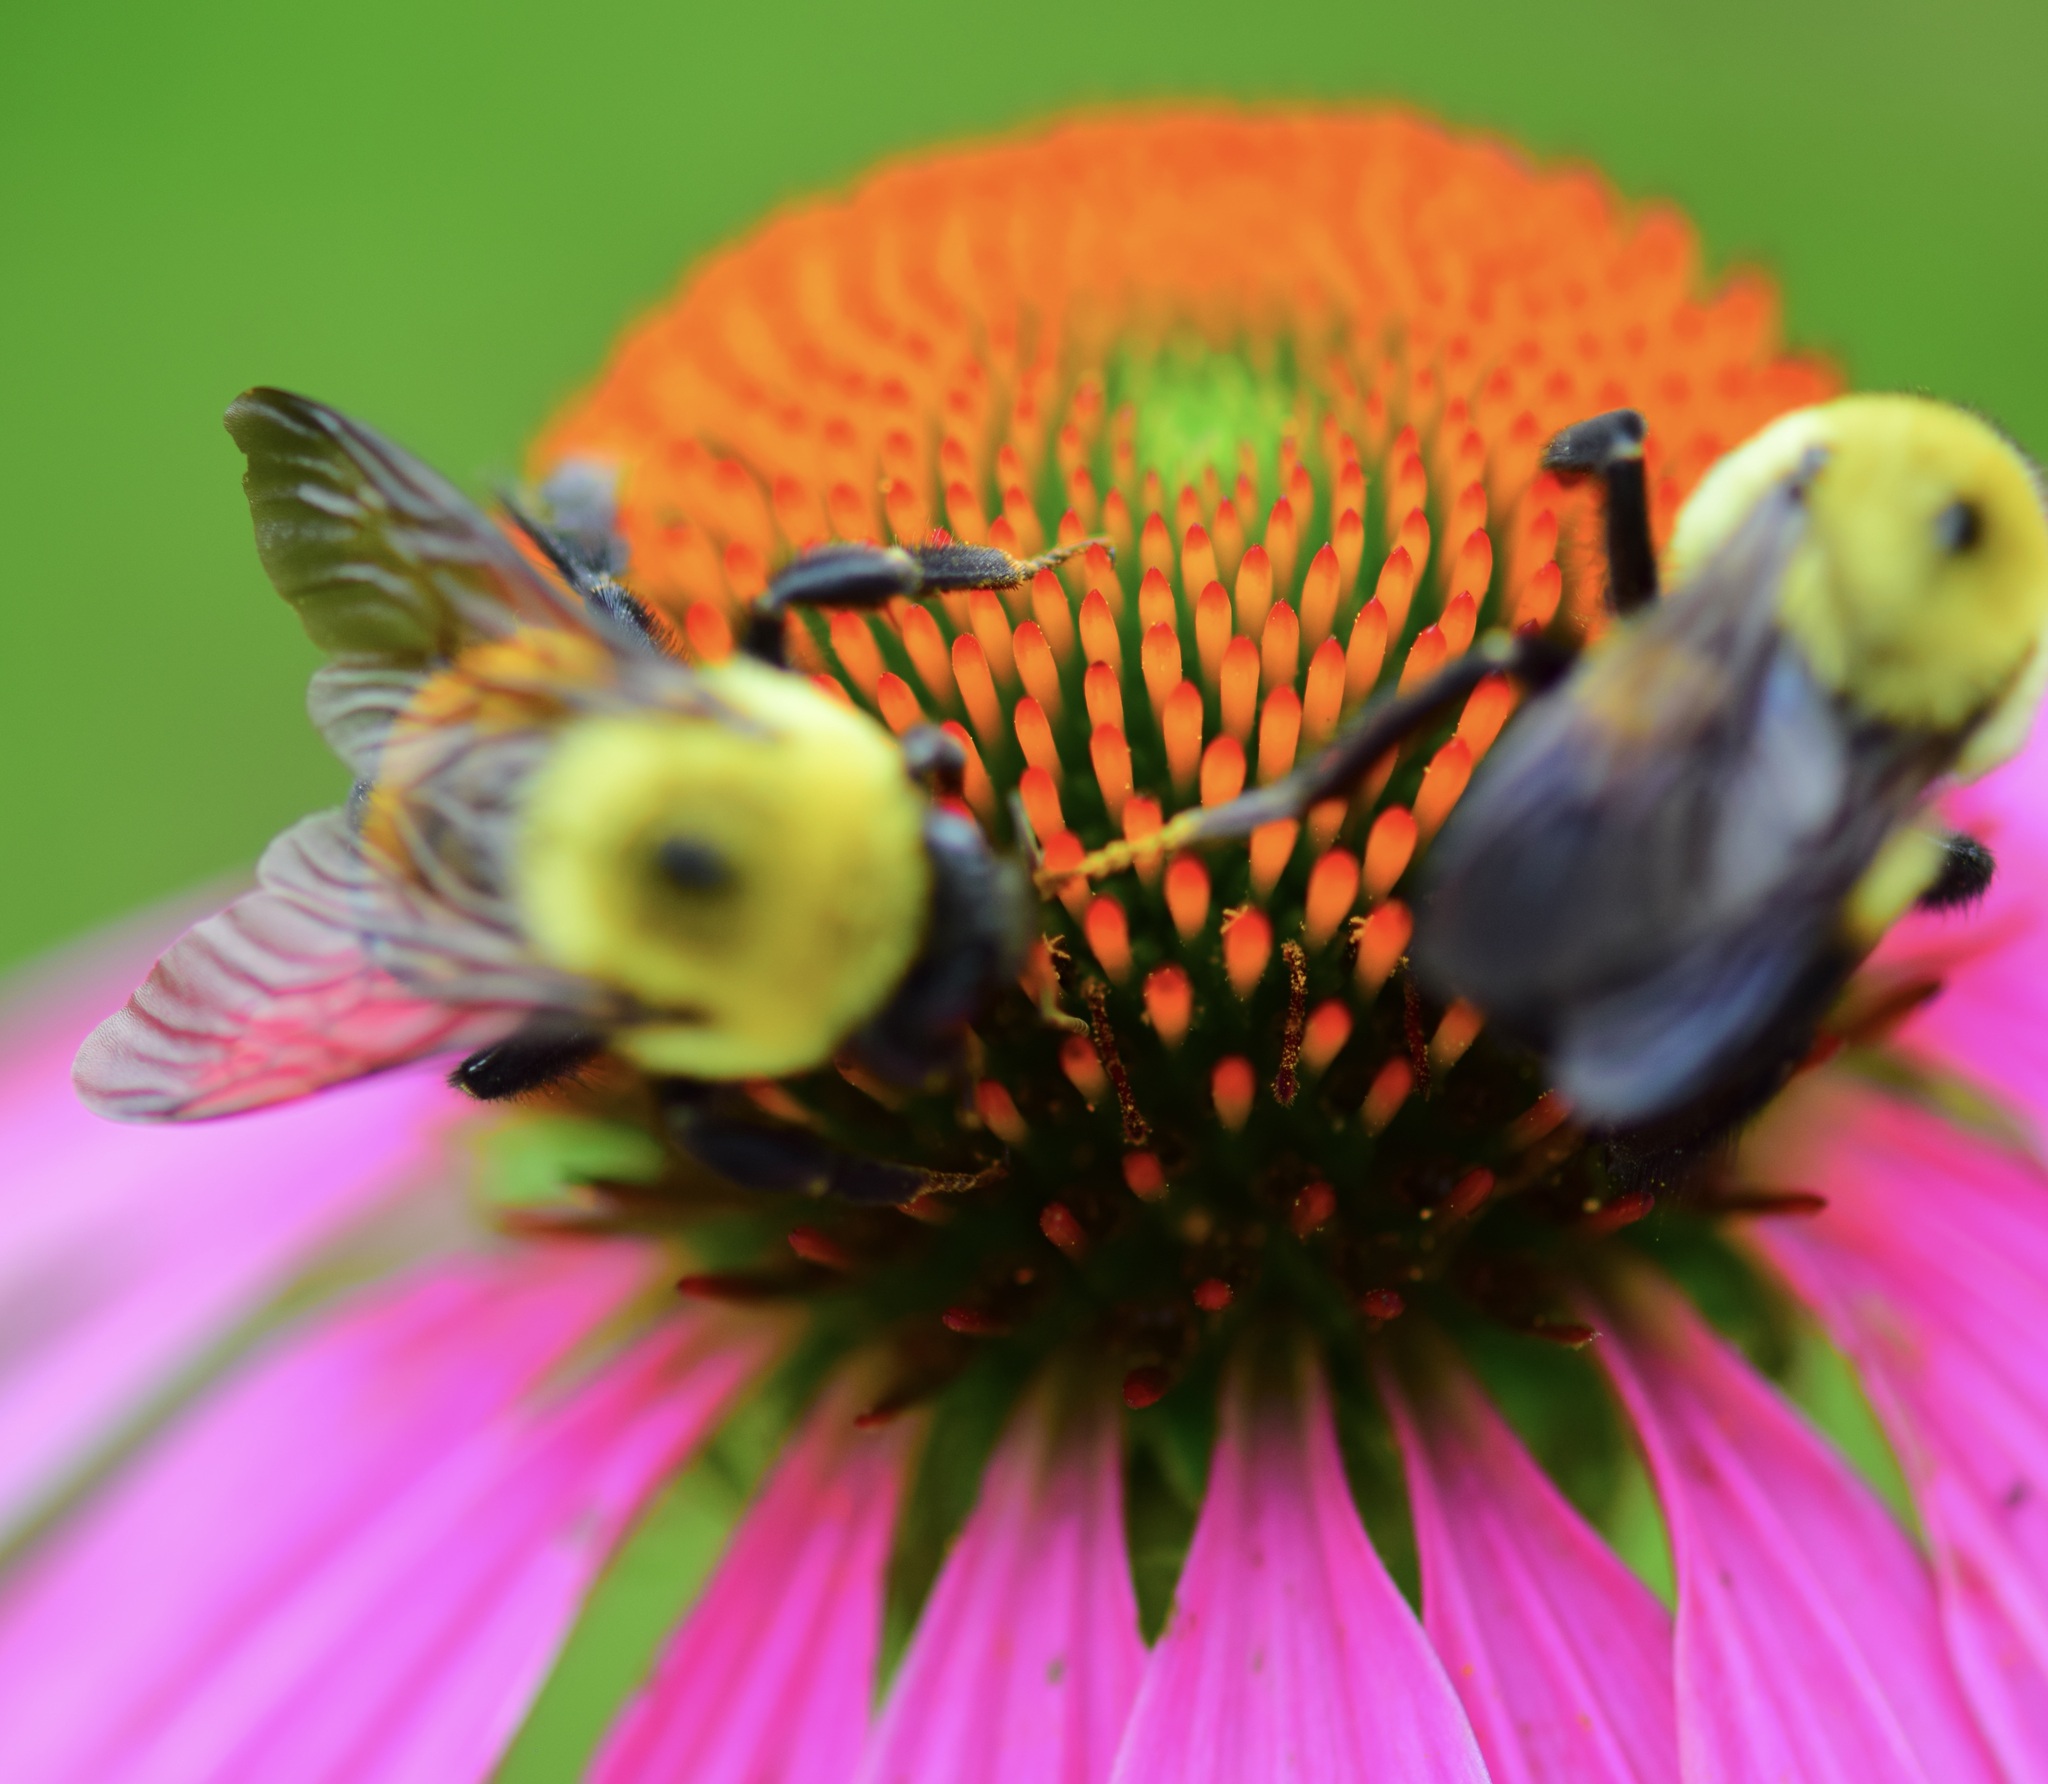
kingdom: Animalia
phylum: Arthropoda
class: Insecta
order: Hymenoptera
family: Apidae
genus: Bombus
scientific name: Bombus griseocollis
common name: Brown-belted bumble bee
